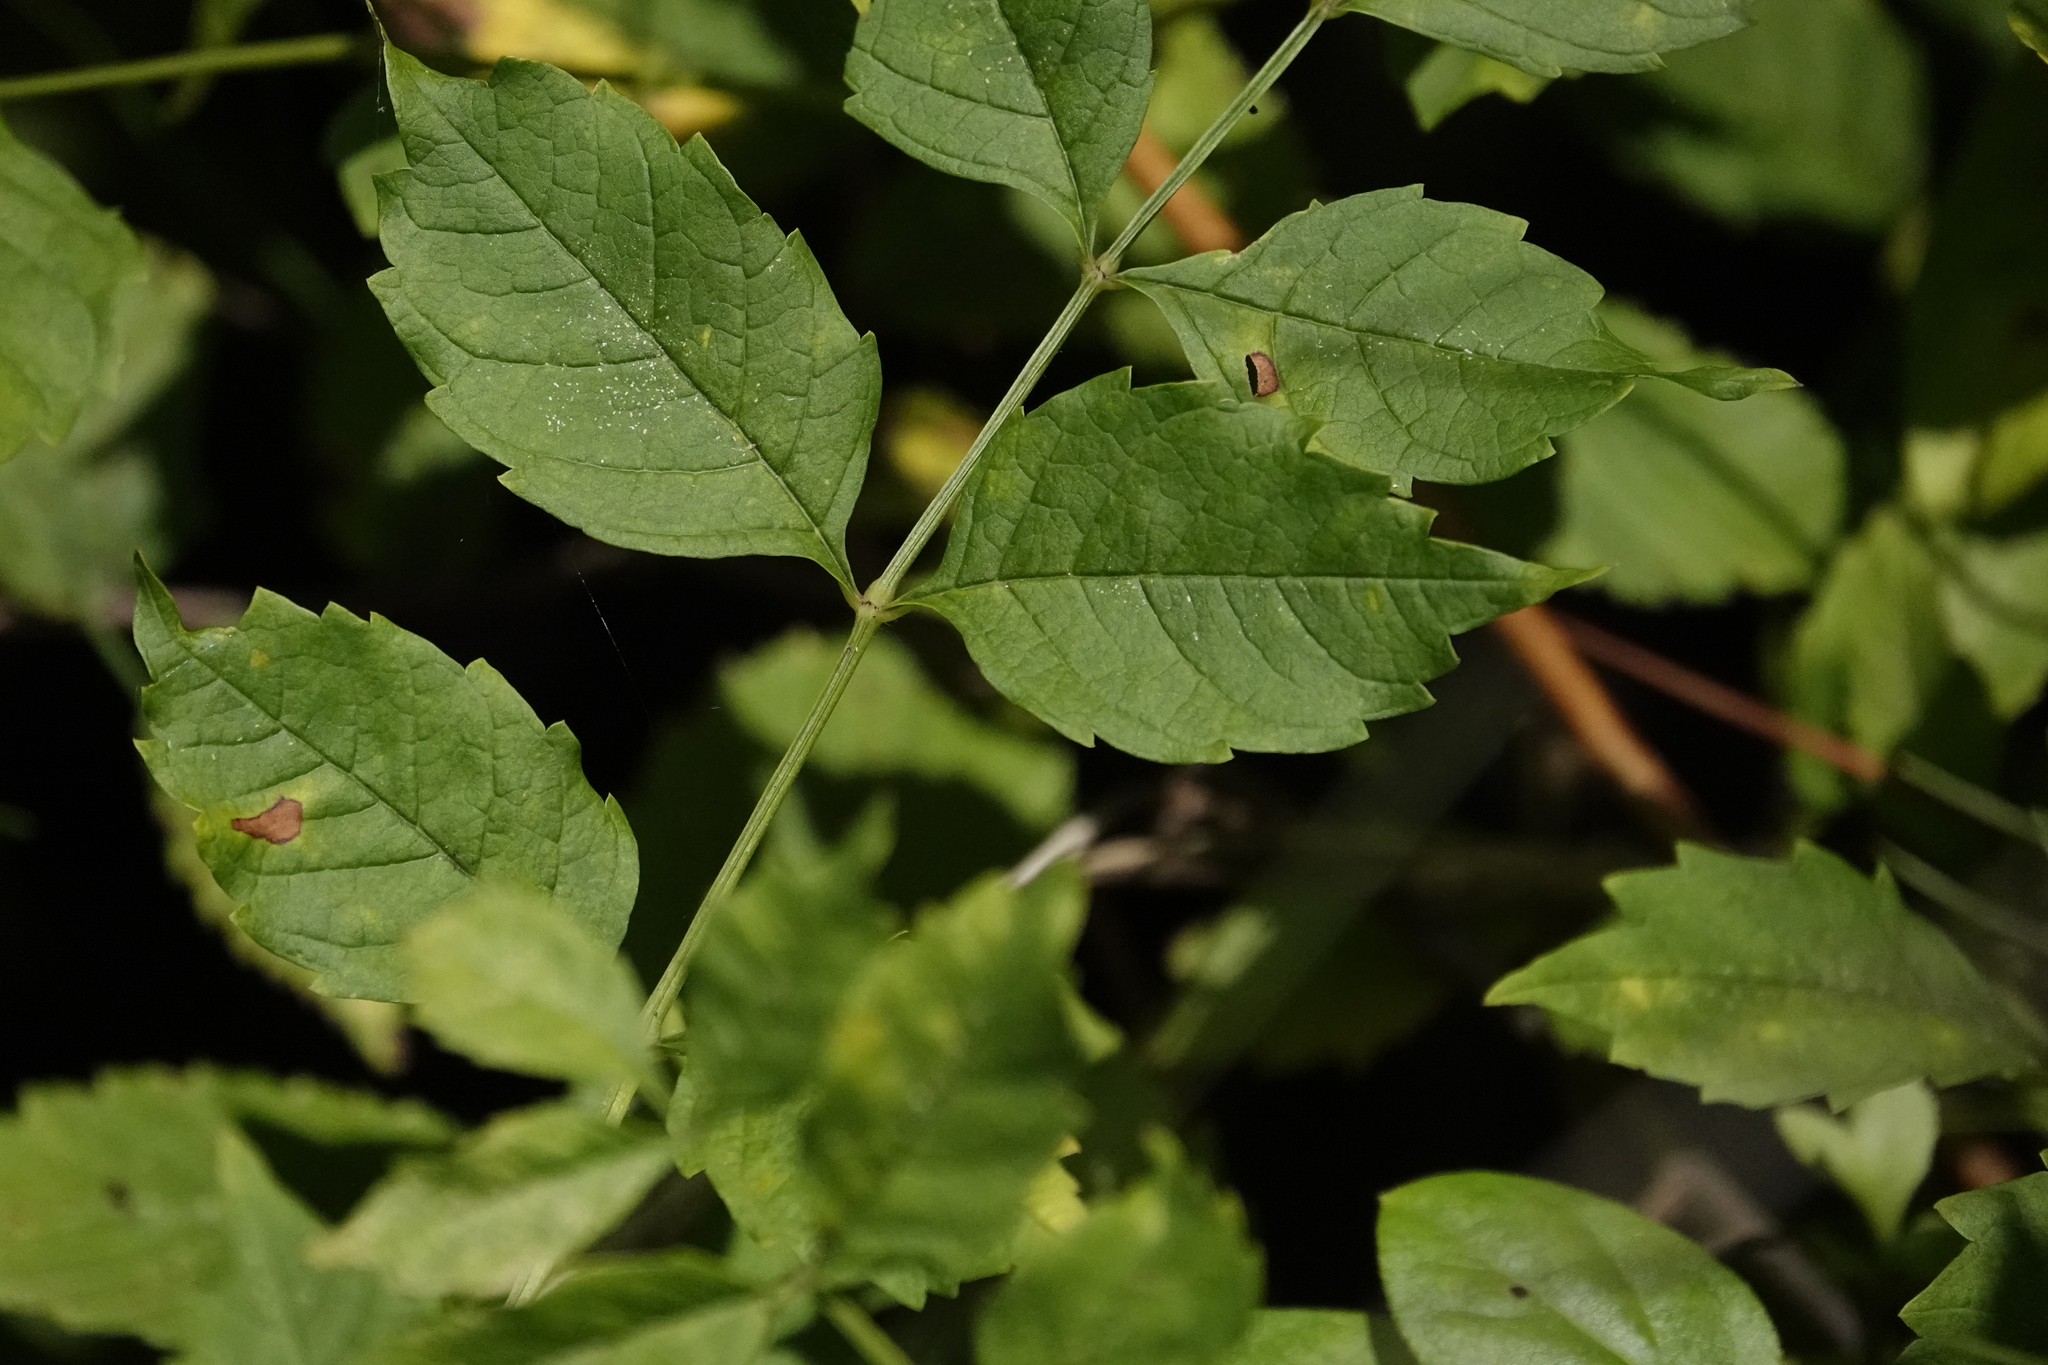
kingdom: Plantae
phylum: Tracheophyta
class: Magnoliopsida
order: Lamiales
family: Bignoniaceae
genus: Campsis
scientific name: Campsis radicans
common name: Trumpet-creeper
